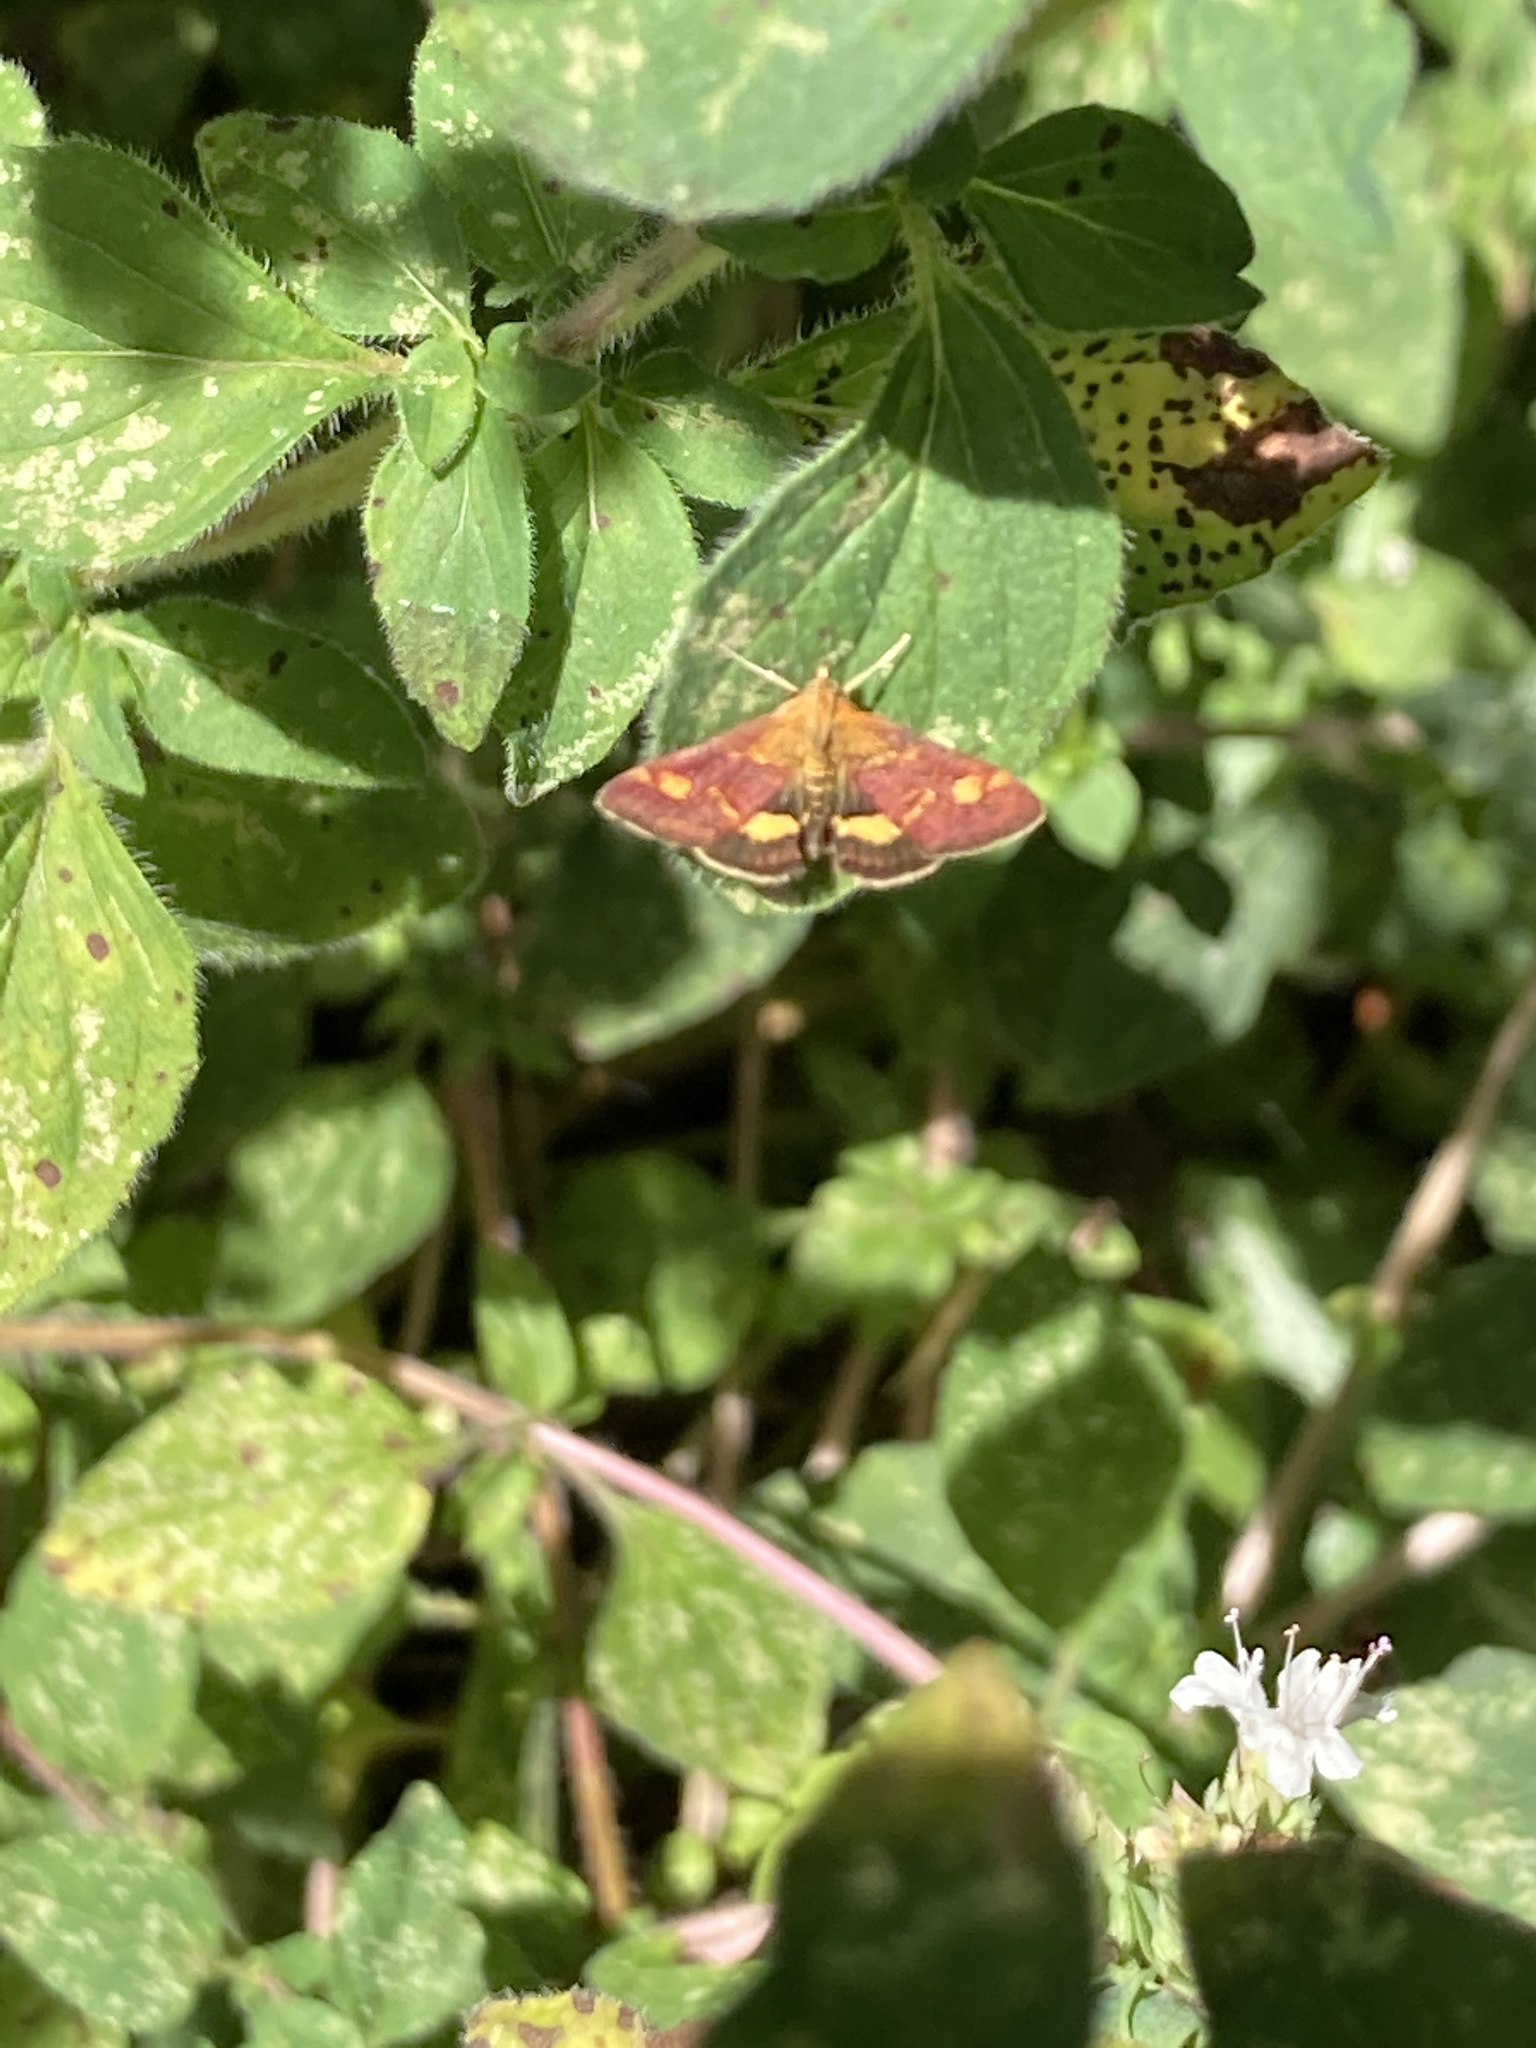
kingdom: Animalia
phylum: Arthropoda
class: Insecta
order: Lepidoptera
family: Crambidae
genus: Pyrausta
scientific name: Pyrausta aurata
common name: Small purple & gold
